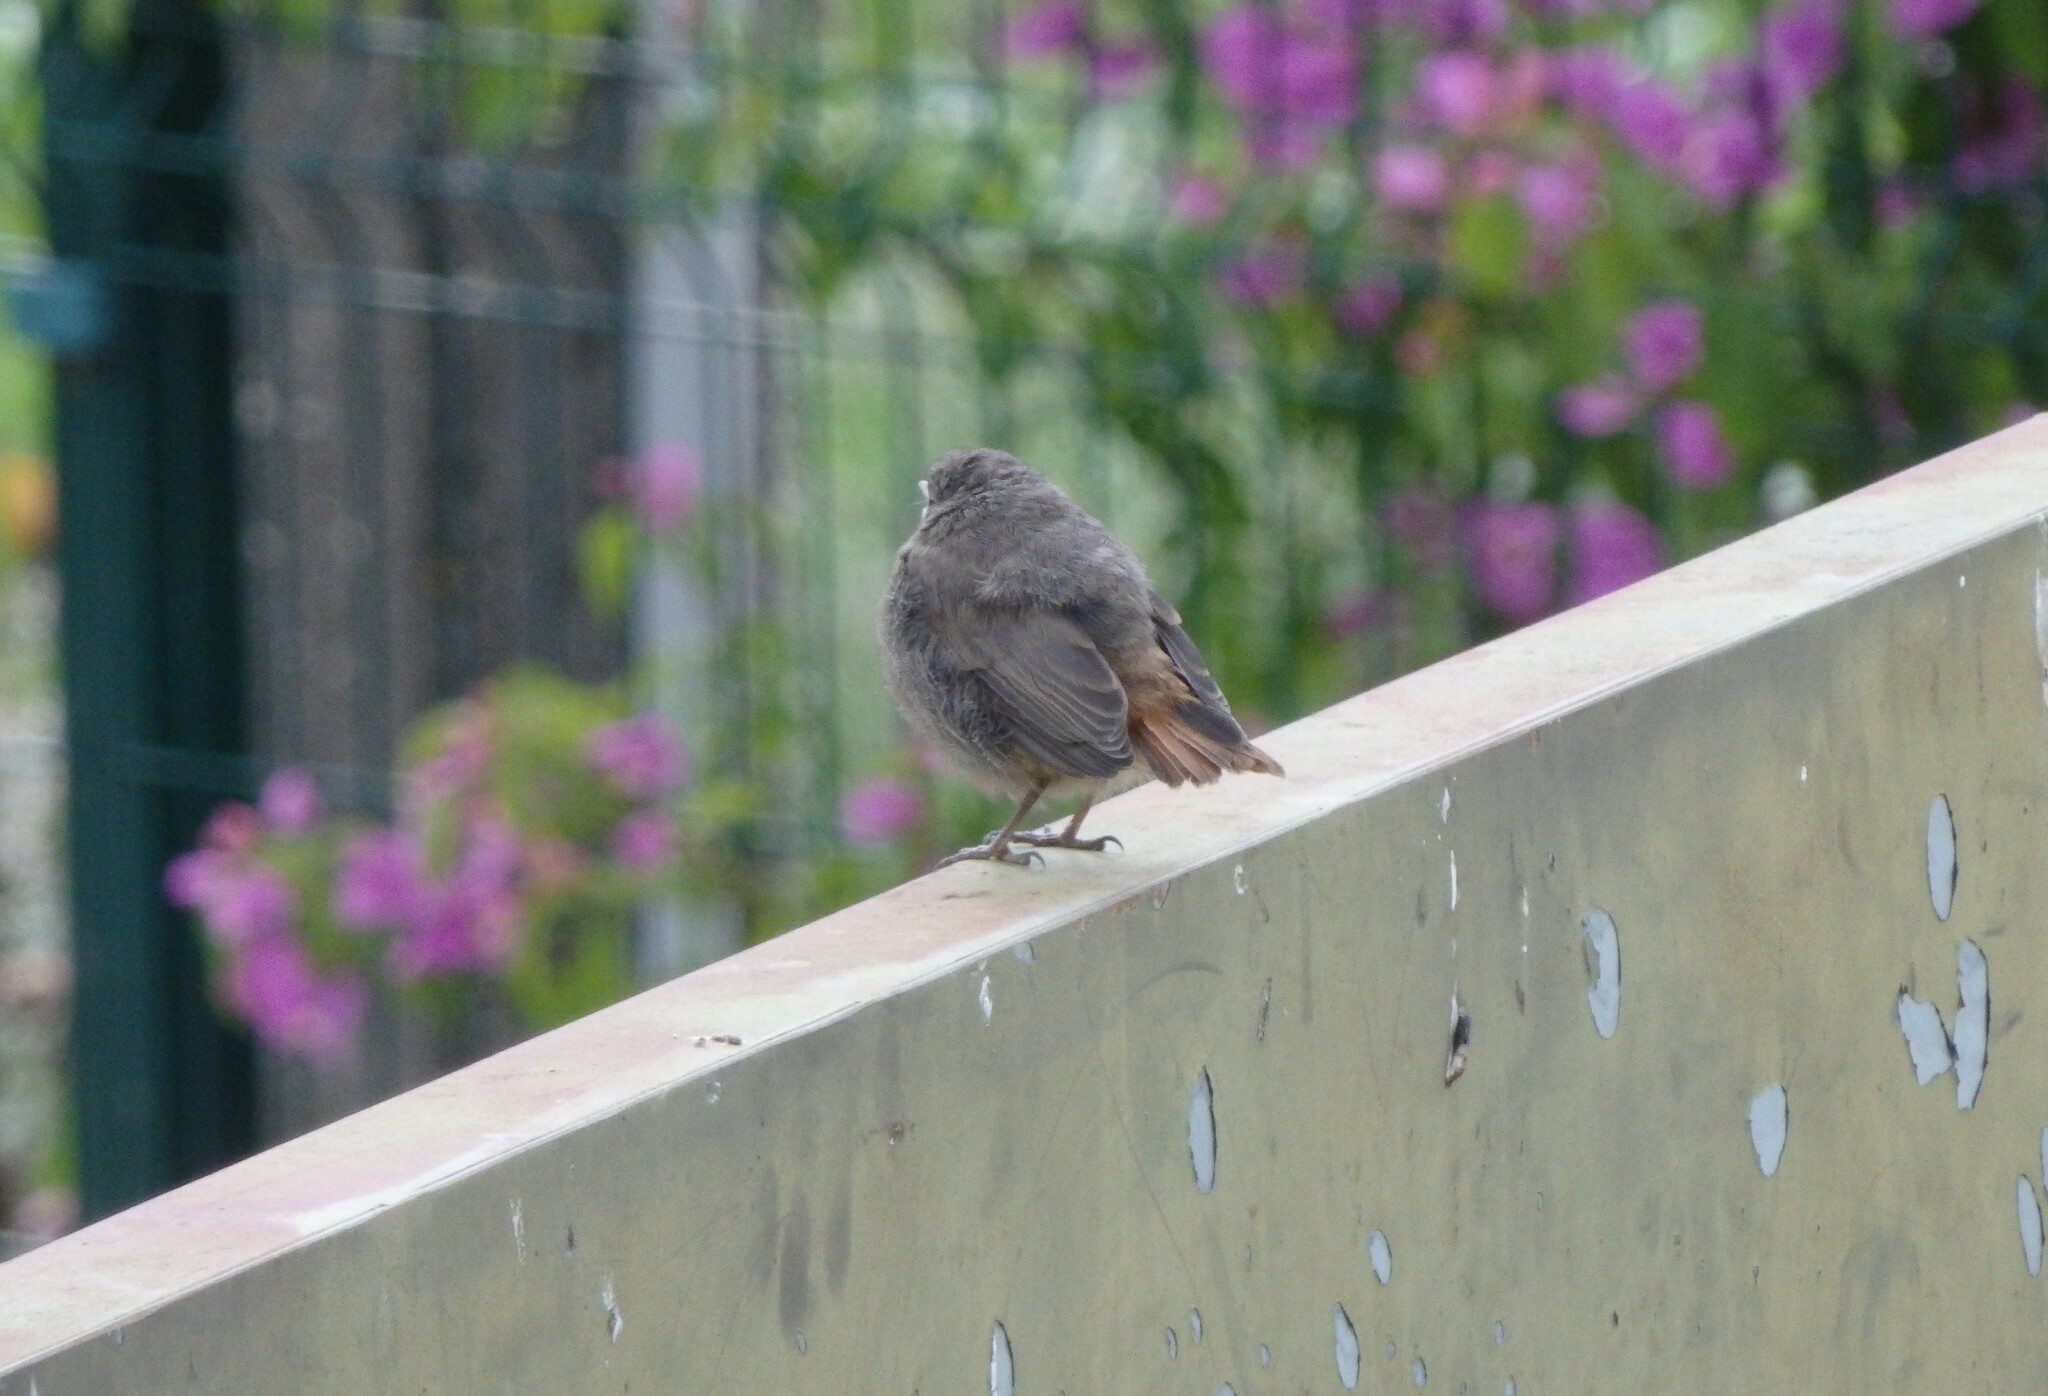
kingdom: Animalia
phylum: Chordata
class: Aves
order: Passeriformes
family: Muscicapidae
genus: Phoenicurus
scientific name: Phoenicurus ochruros
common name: Black redstart
